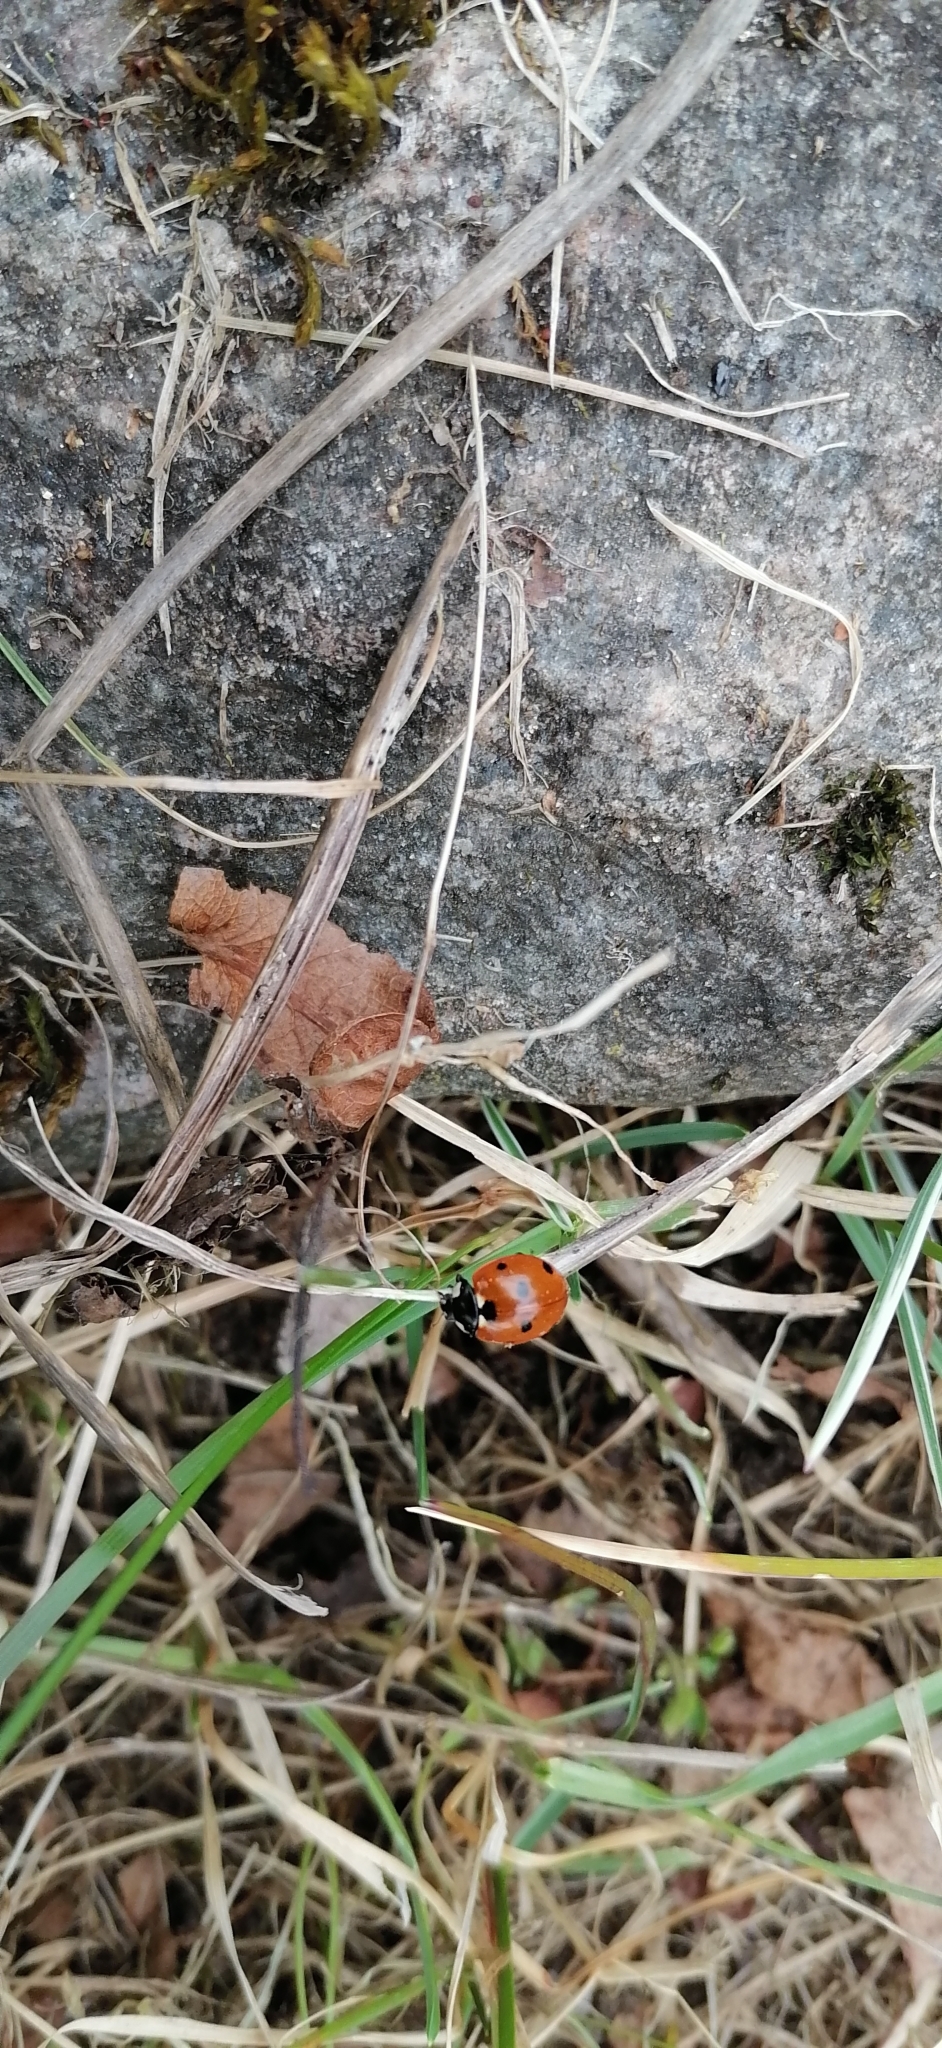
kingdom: Animalia
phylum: Arthropoda
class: Insecta
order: Coleoptera
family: Coccinellidae
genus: Coccinella
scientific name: Coccinella septempunctata
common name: Sevenspotted lady beetle
